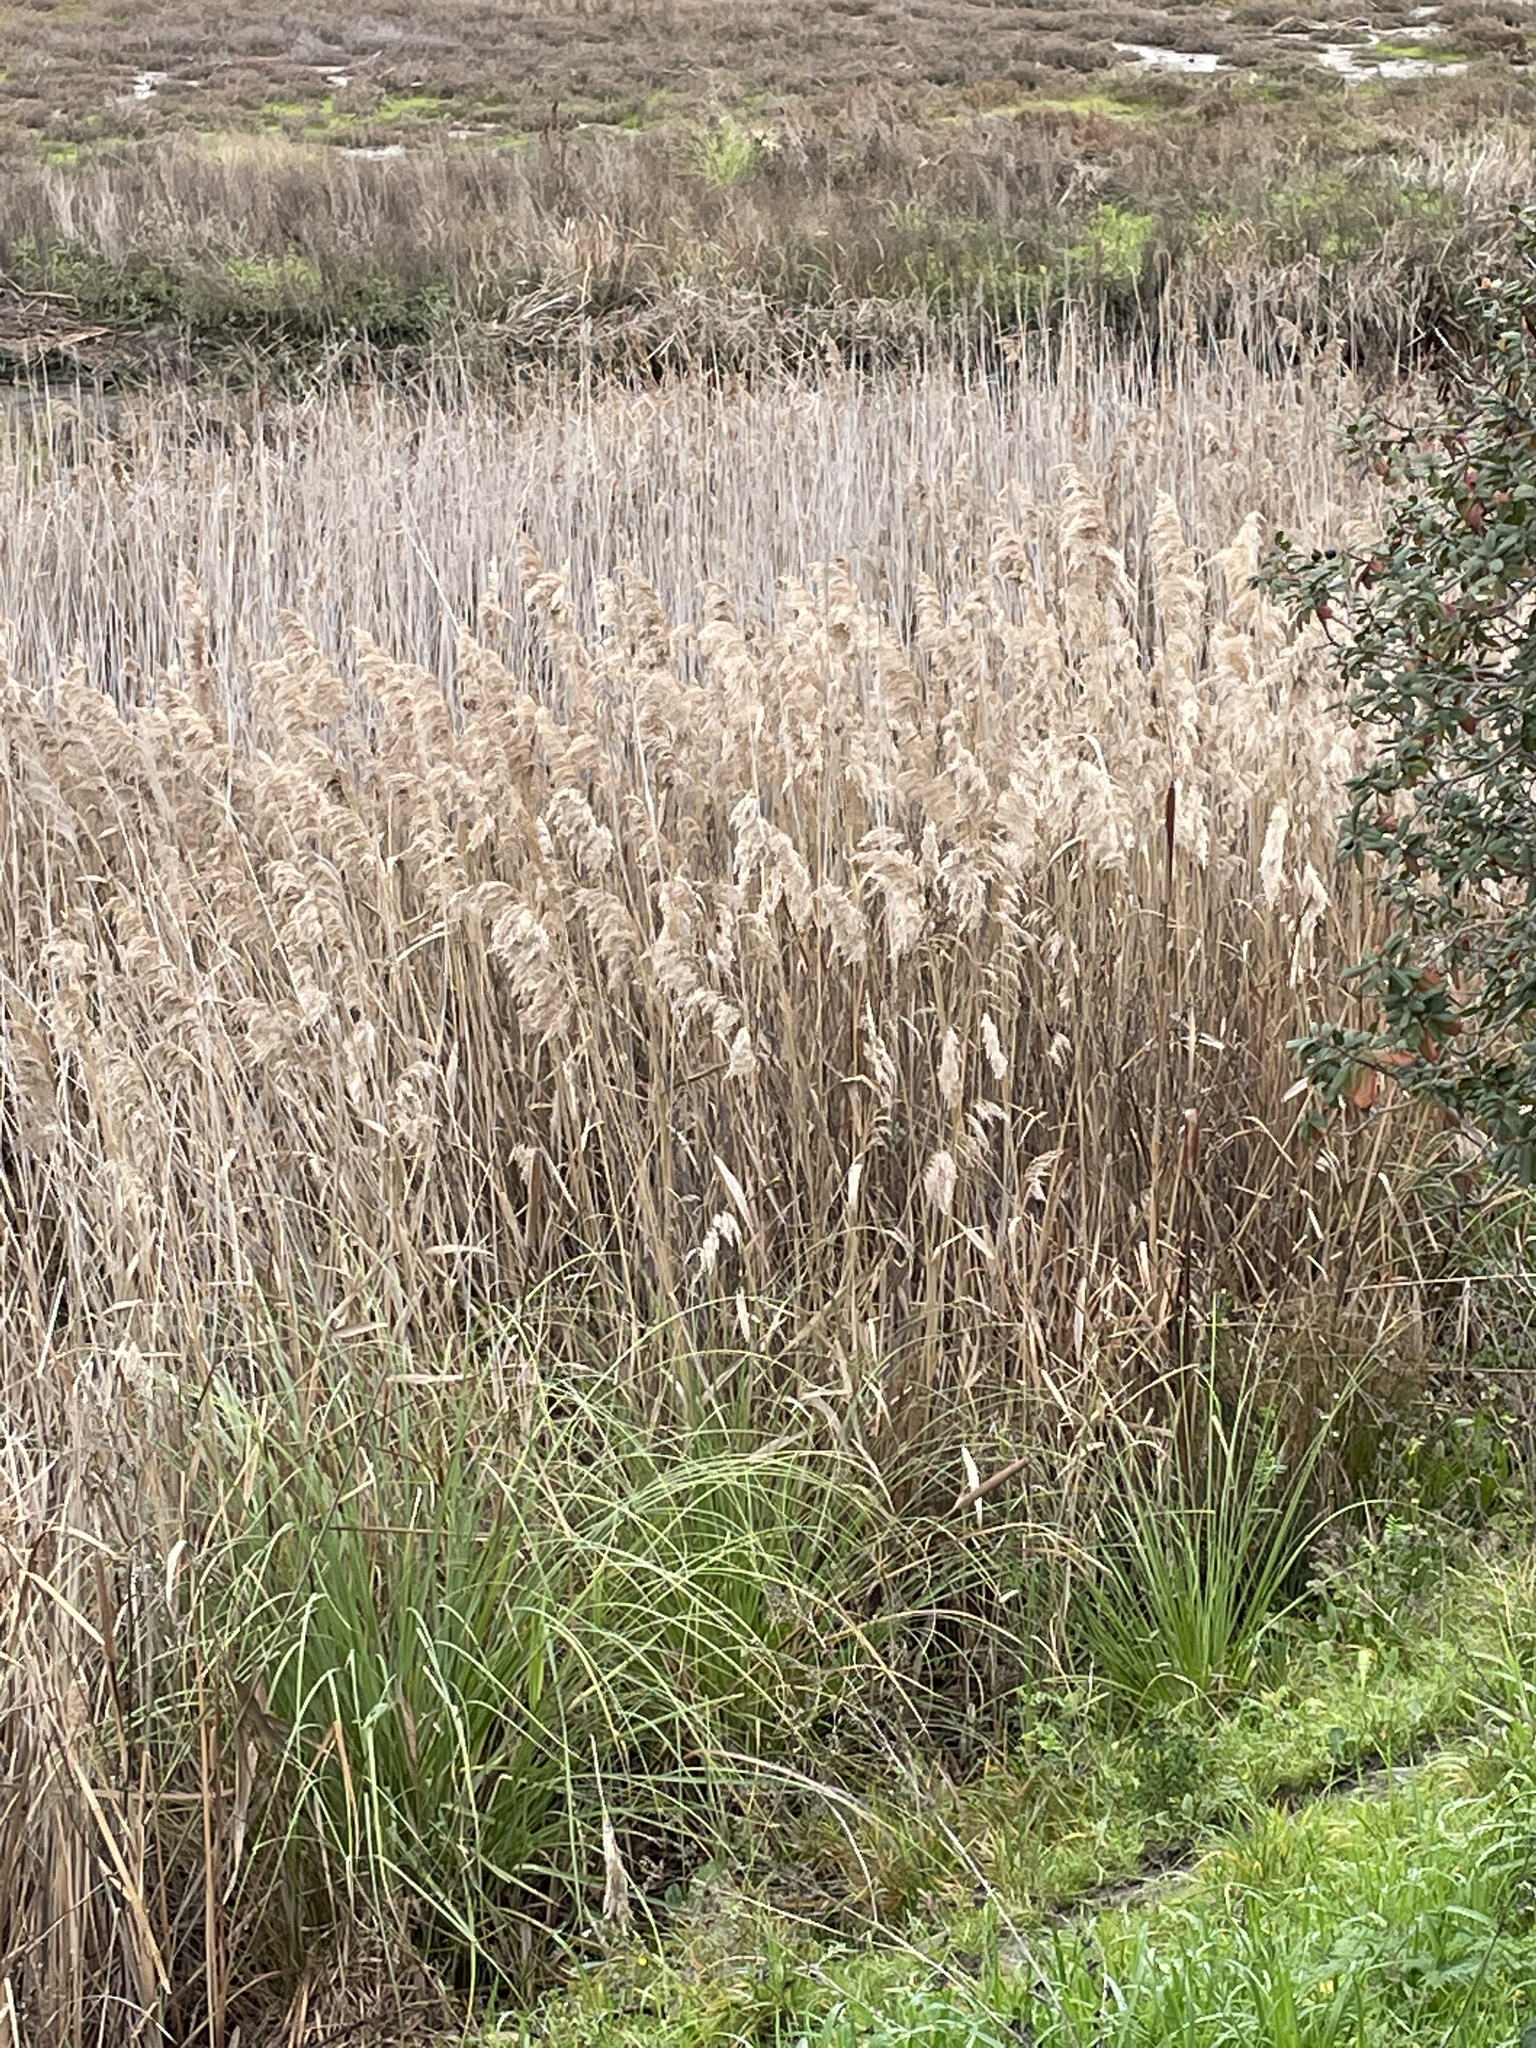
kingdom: Plantae
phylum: Tracheophyta
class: Liliopsida
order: Poales
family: Poaceae
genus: Phragmites
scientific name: Phragmites australis
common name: Common reed
